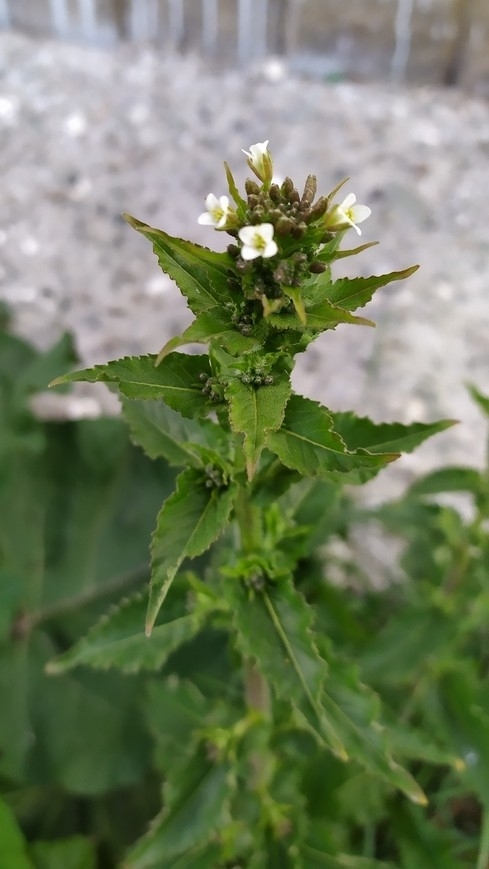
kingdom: Plantae
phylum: Tracheophyta
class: Magnoliopsida
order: Brassicales
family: Brassicaceae
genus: Catolobus
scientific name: Catolobus pendulus
